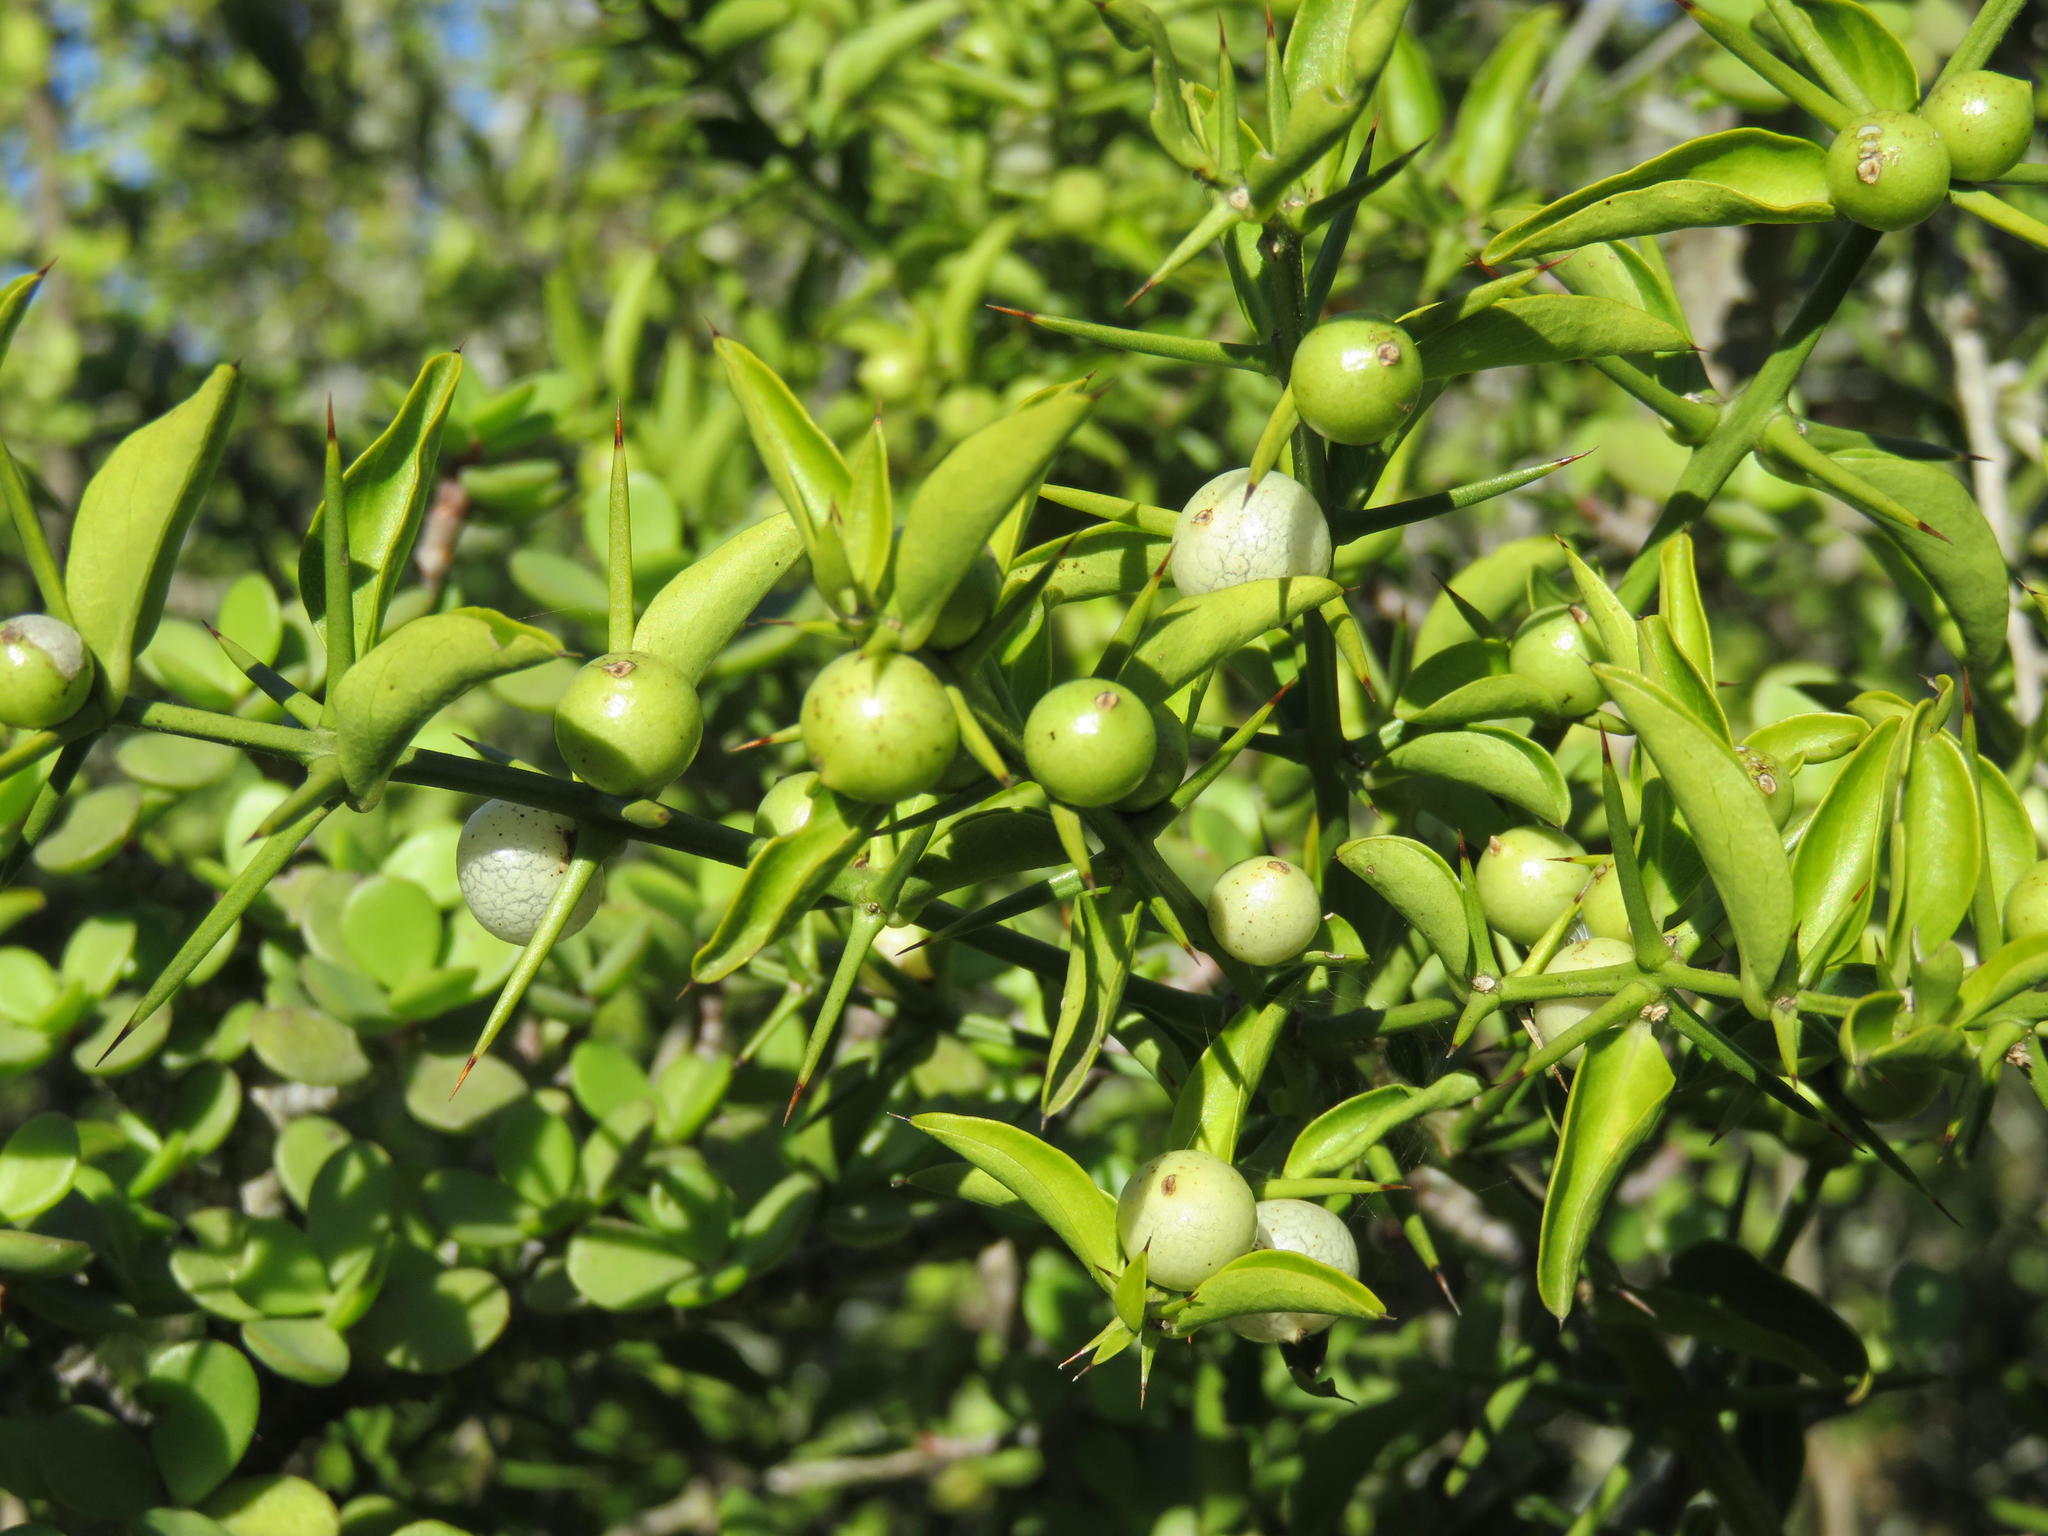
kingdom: Plantae
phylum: Tracheophyta
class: Magnoliopsida
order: Brassicales
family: Salvadoraceae
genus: Azima
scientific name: Azima tetracantha
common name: Needle bush
